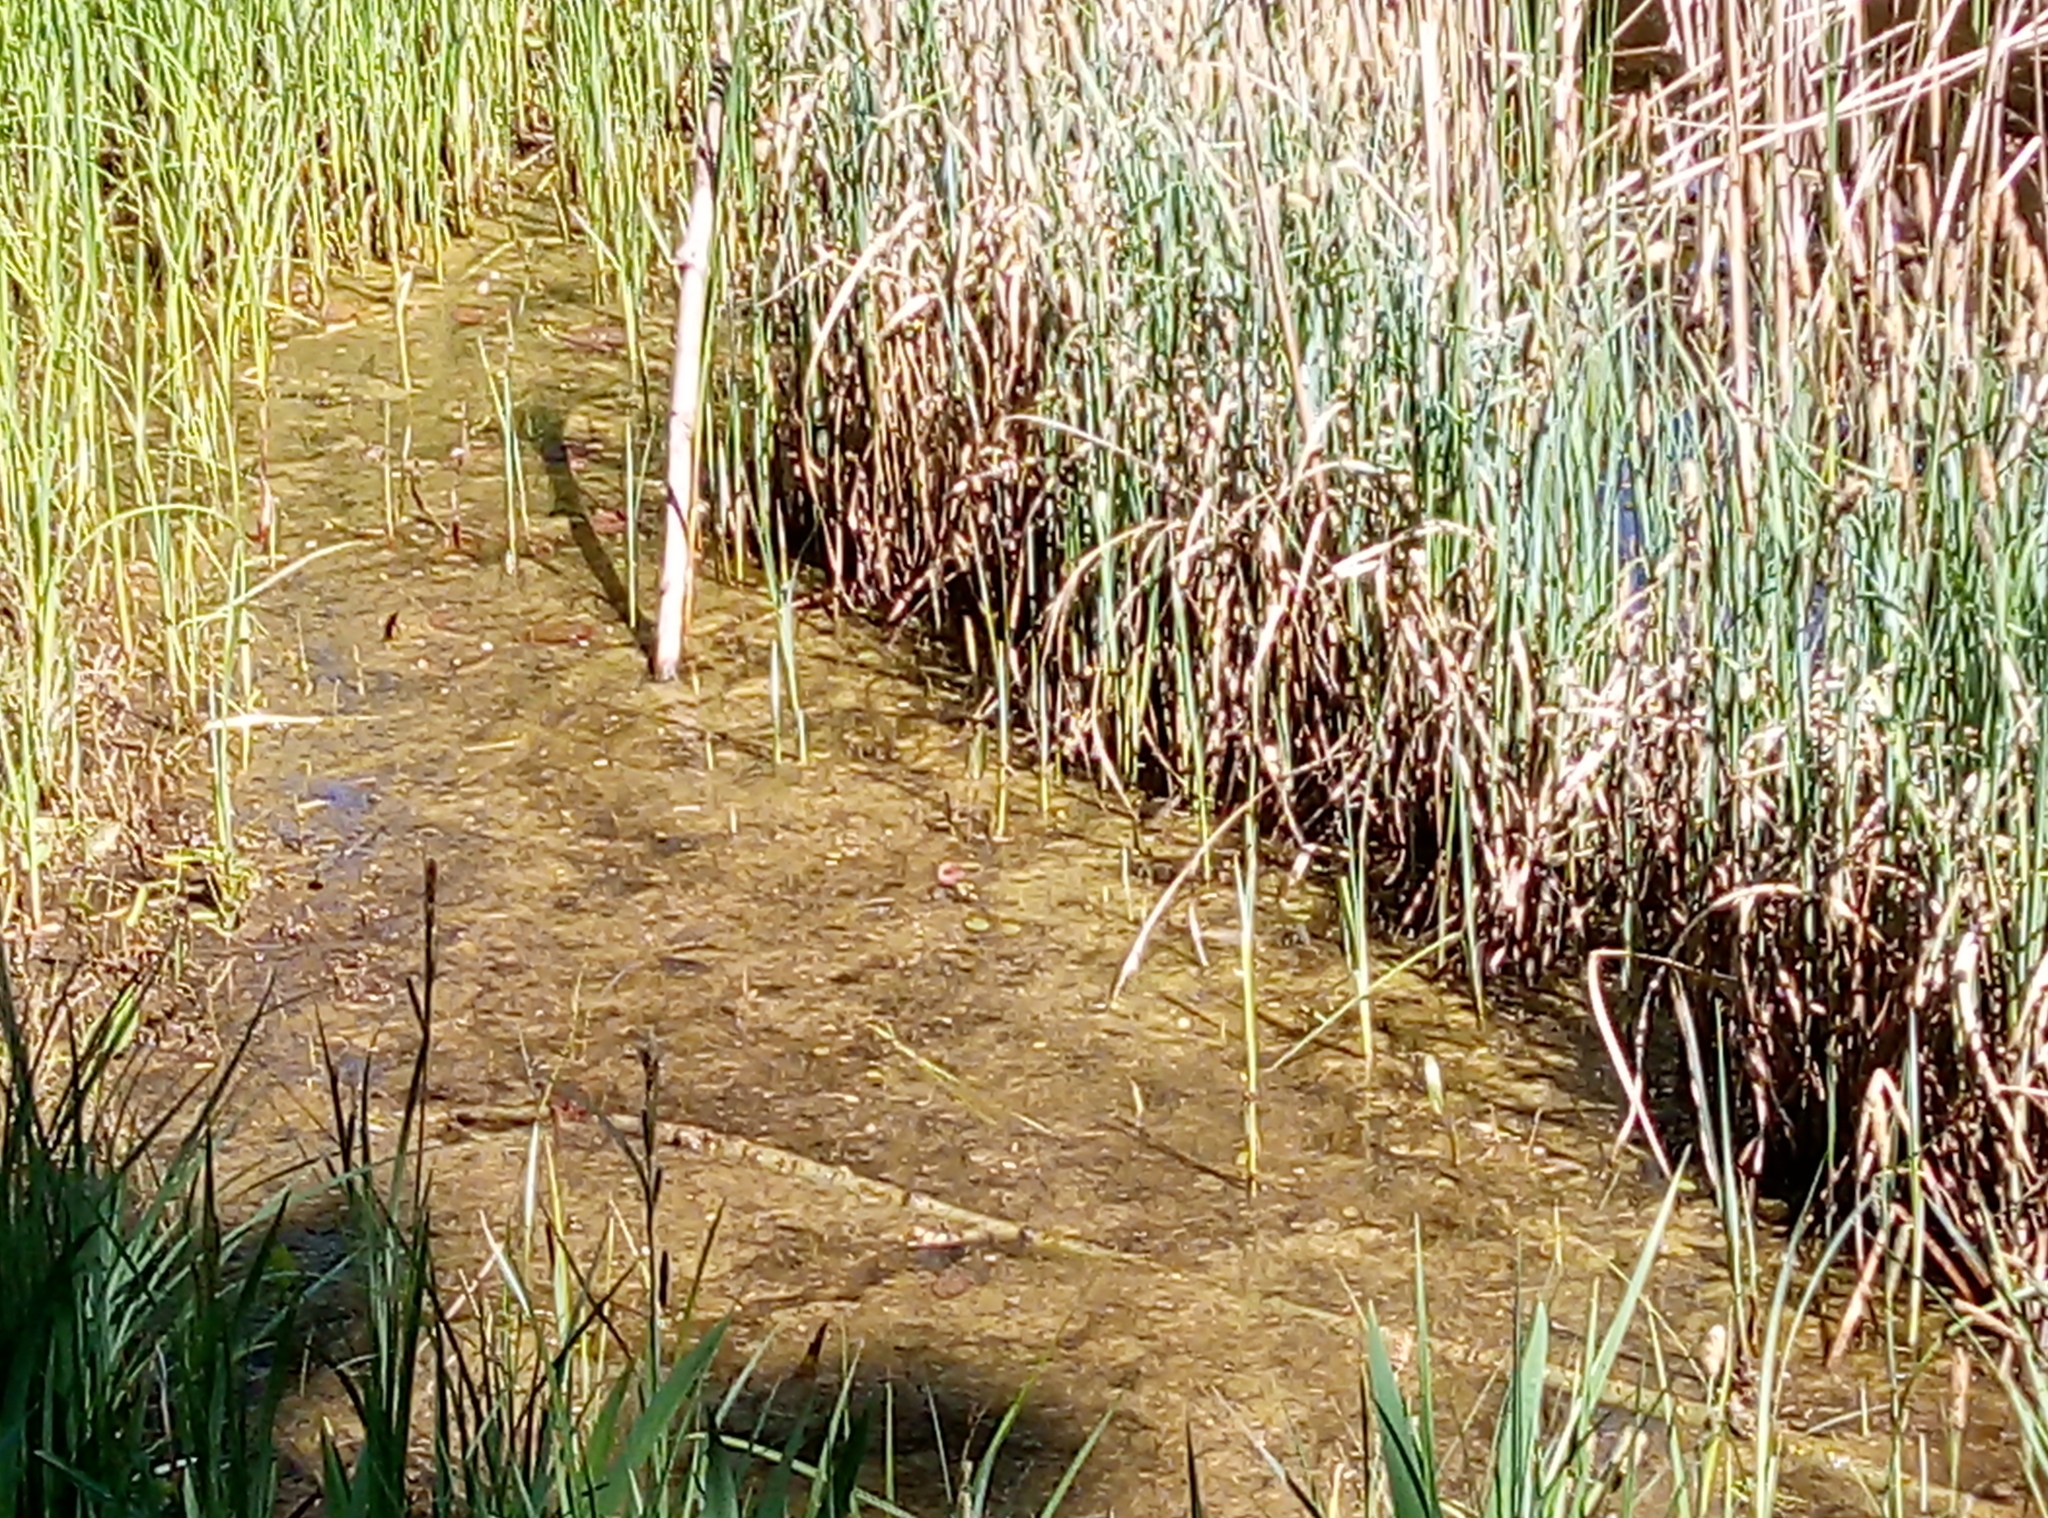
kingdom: Animalia
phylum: Chordata
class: Amphibia
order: Anura
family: Ranidae
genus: Pelophylax
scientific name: Pelophylax
